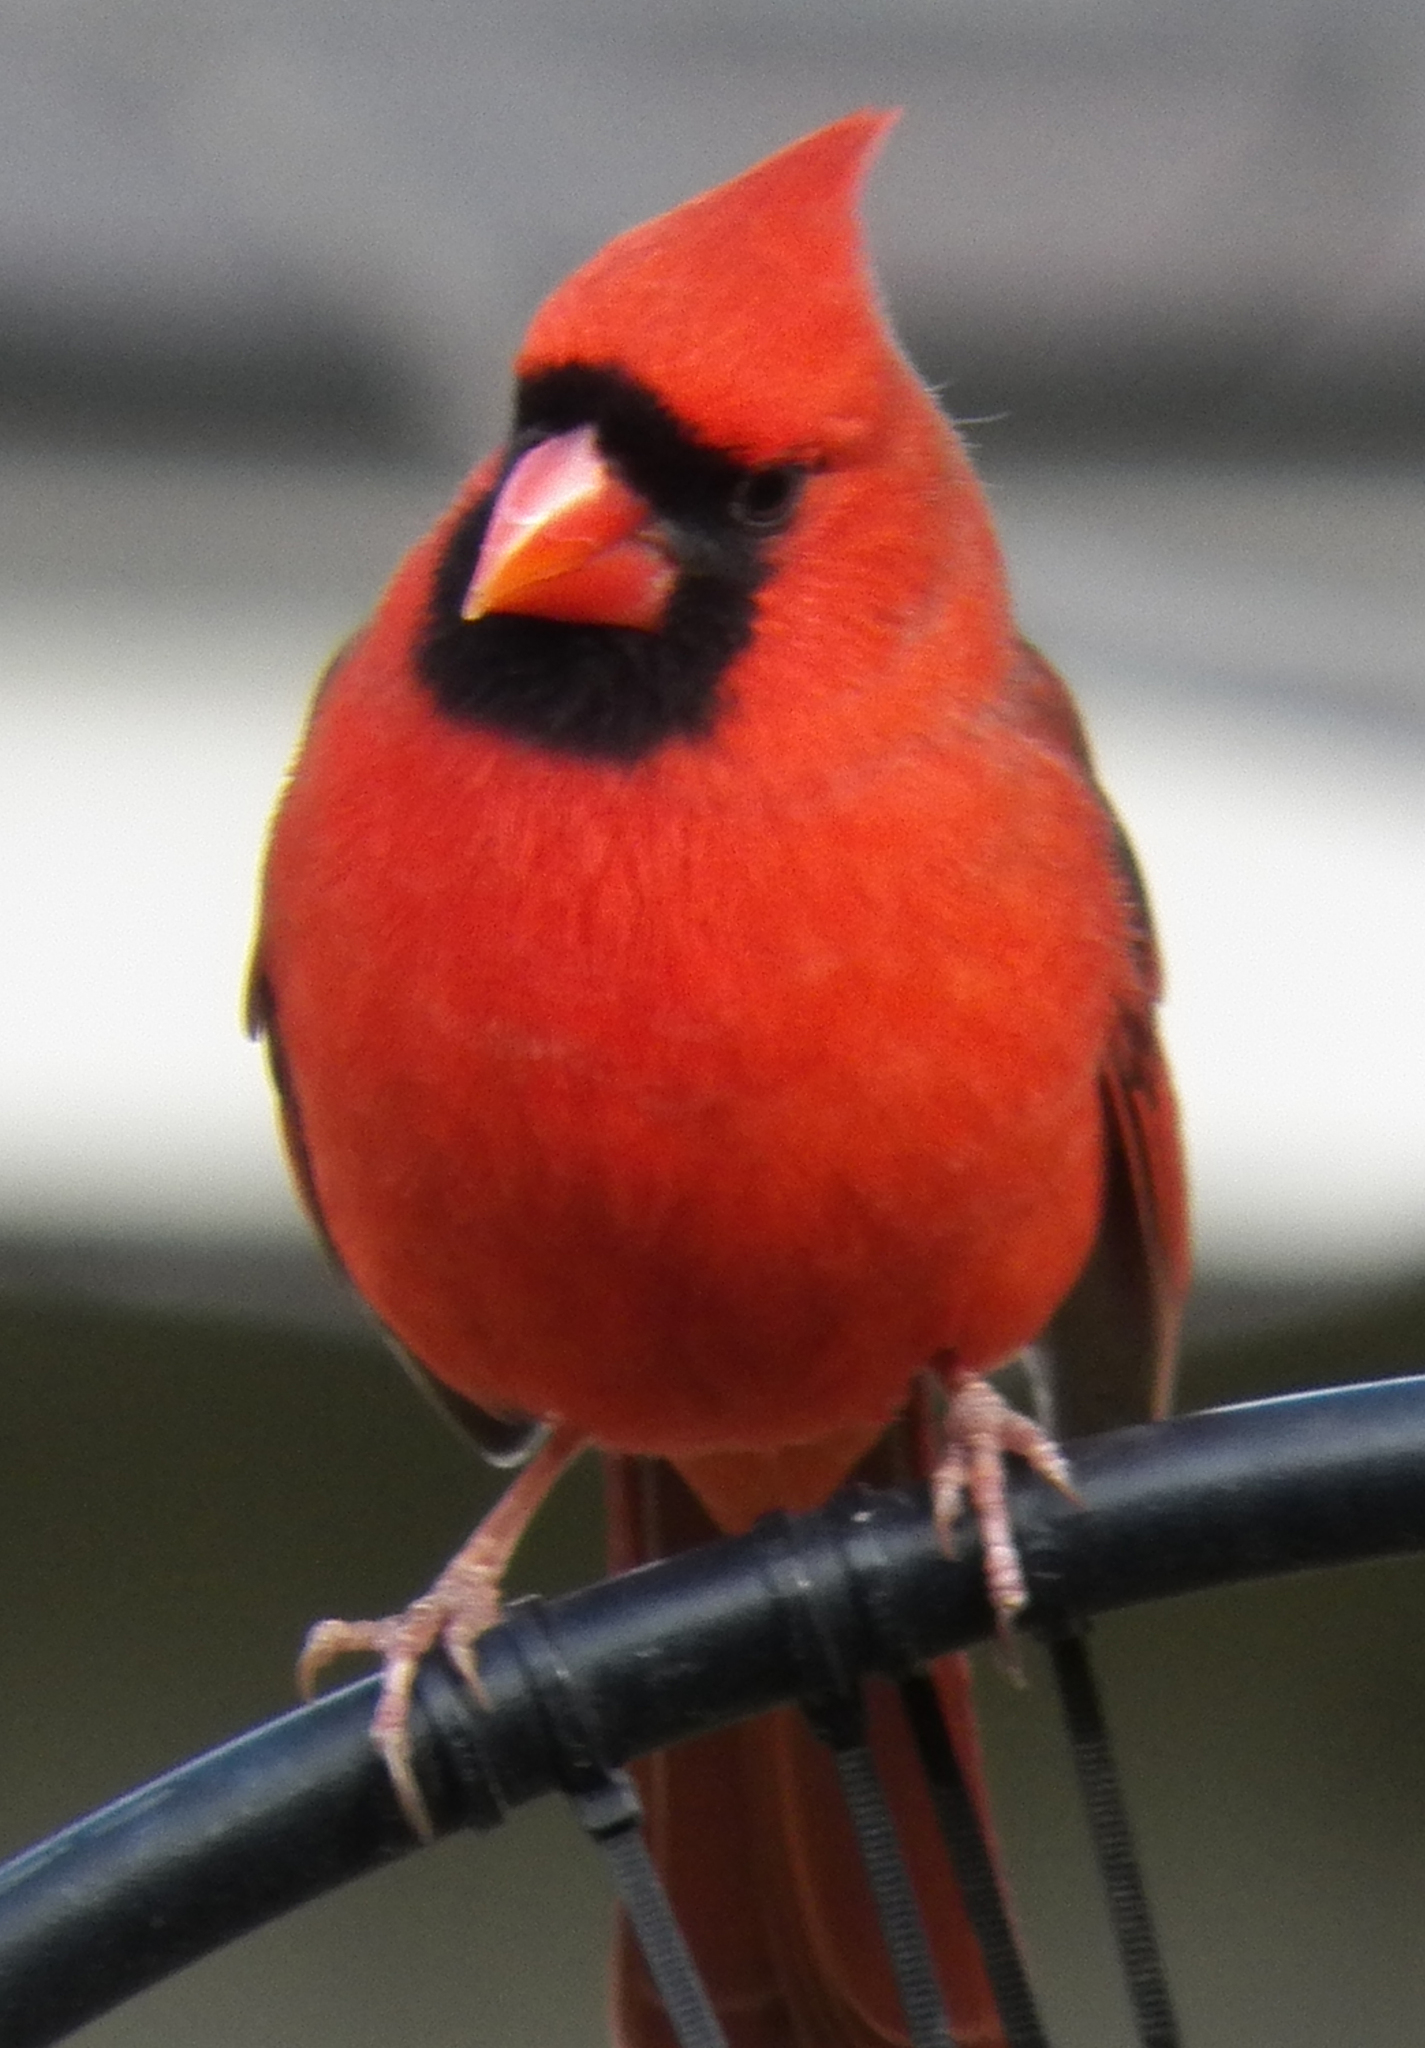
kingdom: Animalia
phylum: Chordata
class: Aves
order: Passeriformes
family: Cardinalidae
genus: Cardinalis
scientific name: Cardinalis cardinalis
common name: Northern cardinal
